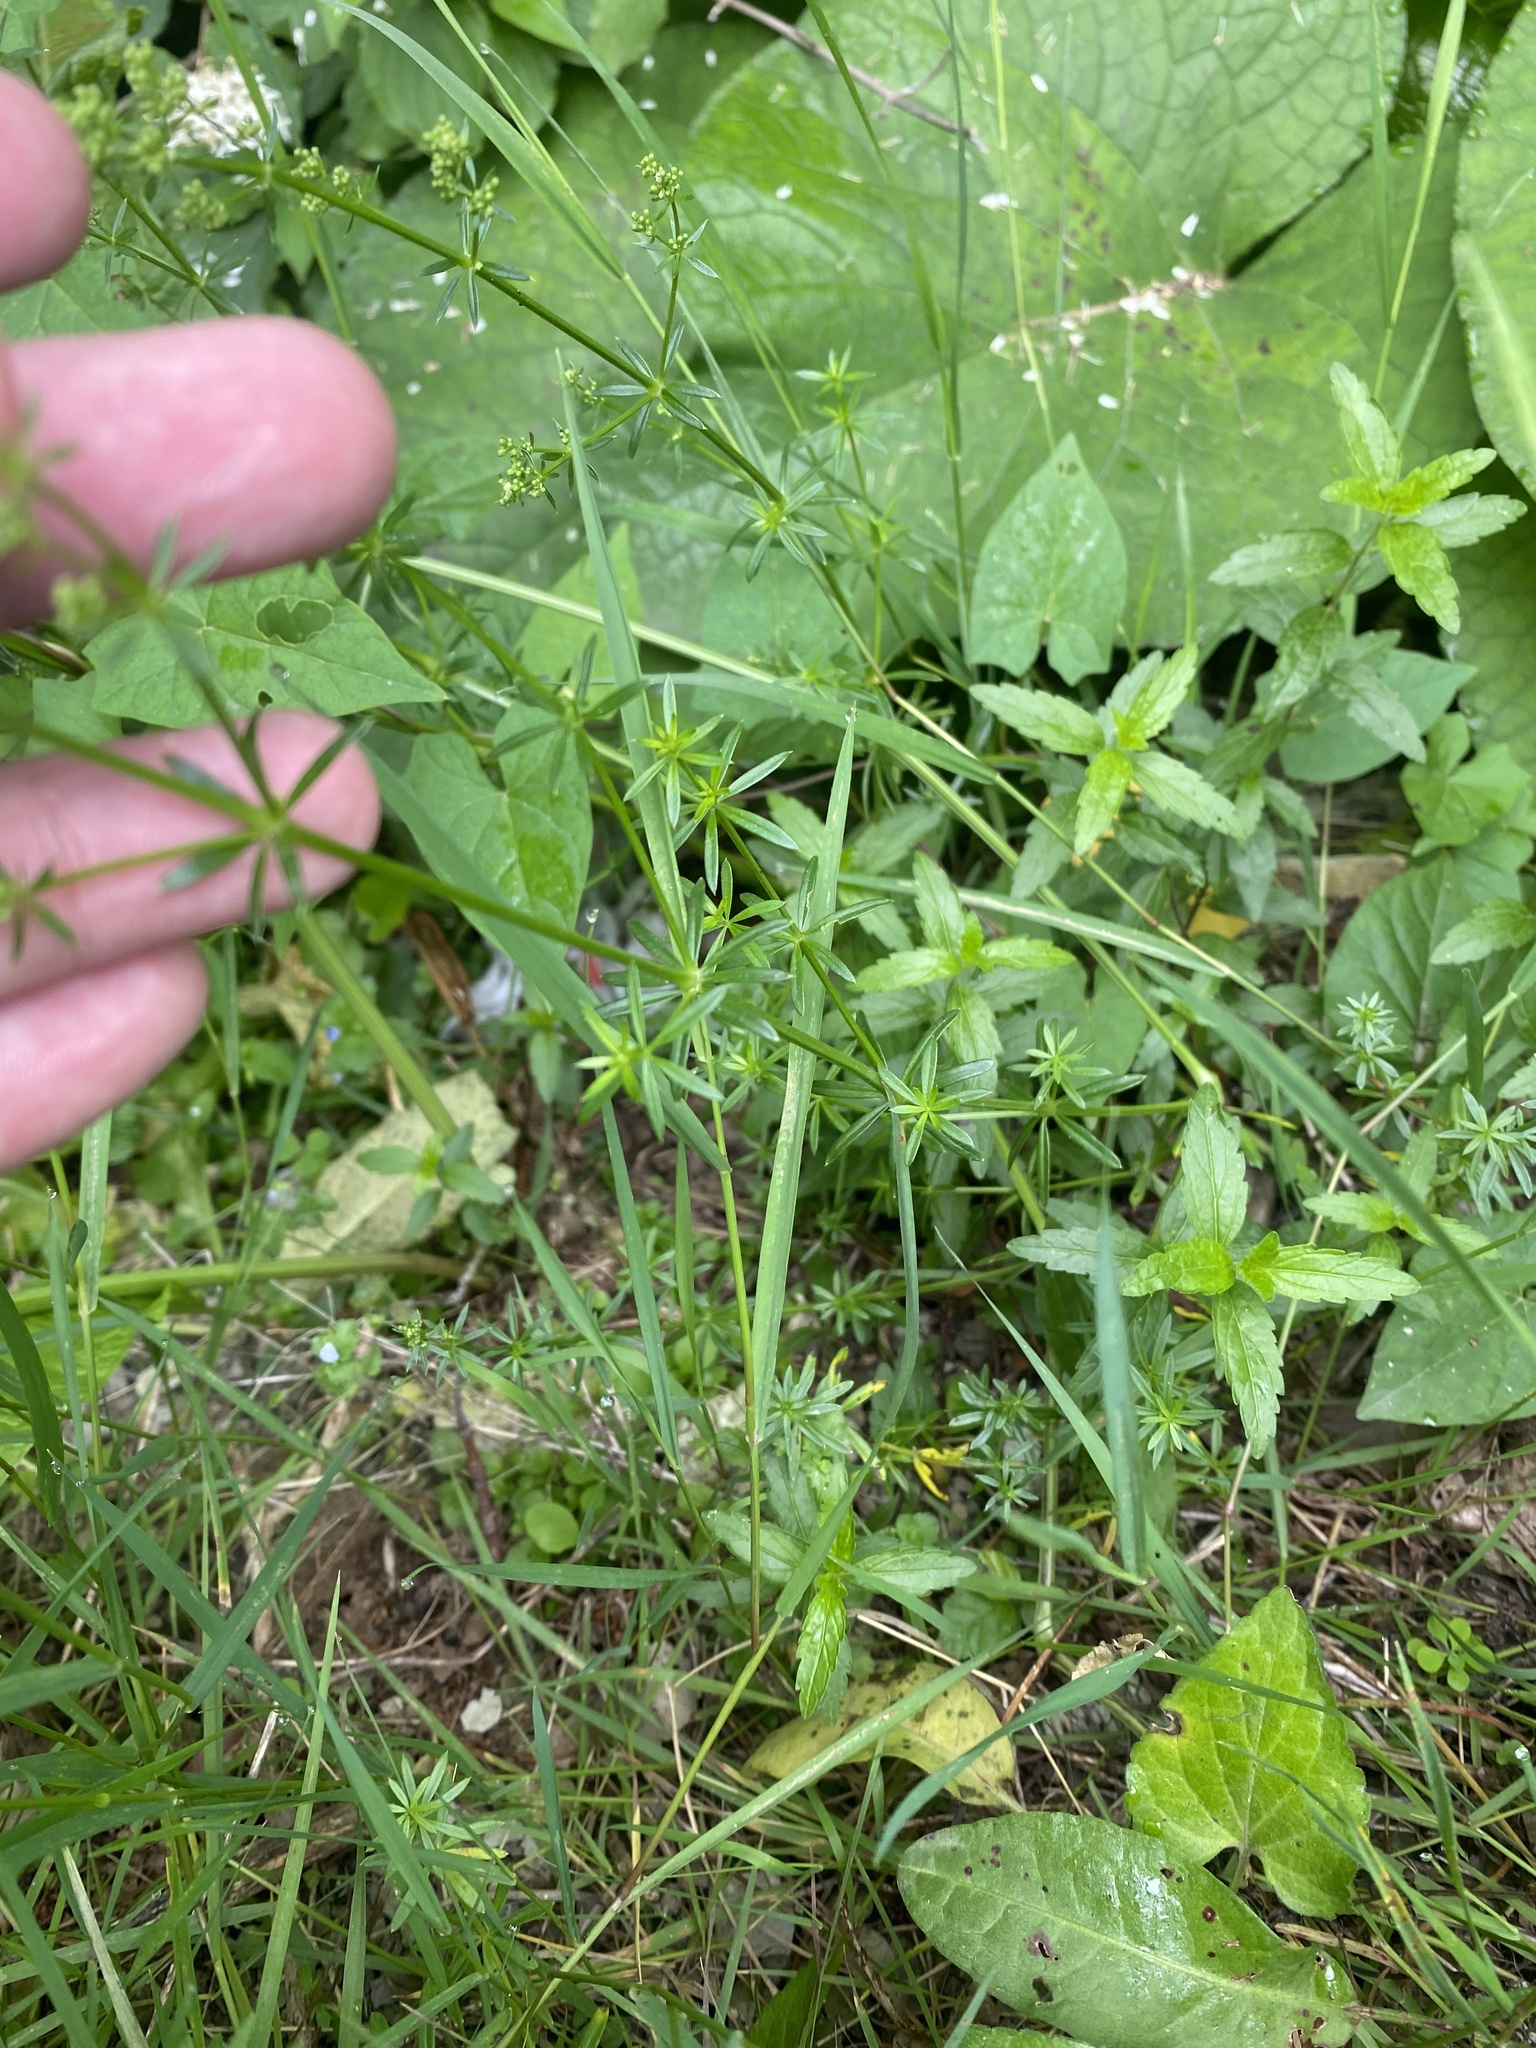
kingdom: Plantae
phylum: Tracheophyta
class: Magnoliopsida
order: Gentianales
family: Rubiaceae
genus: Galium
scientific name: Galium mollugo
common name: Hedge bedstraw
